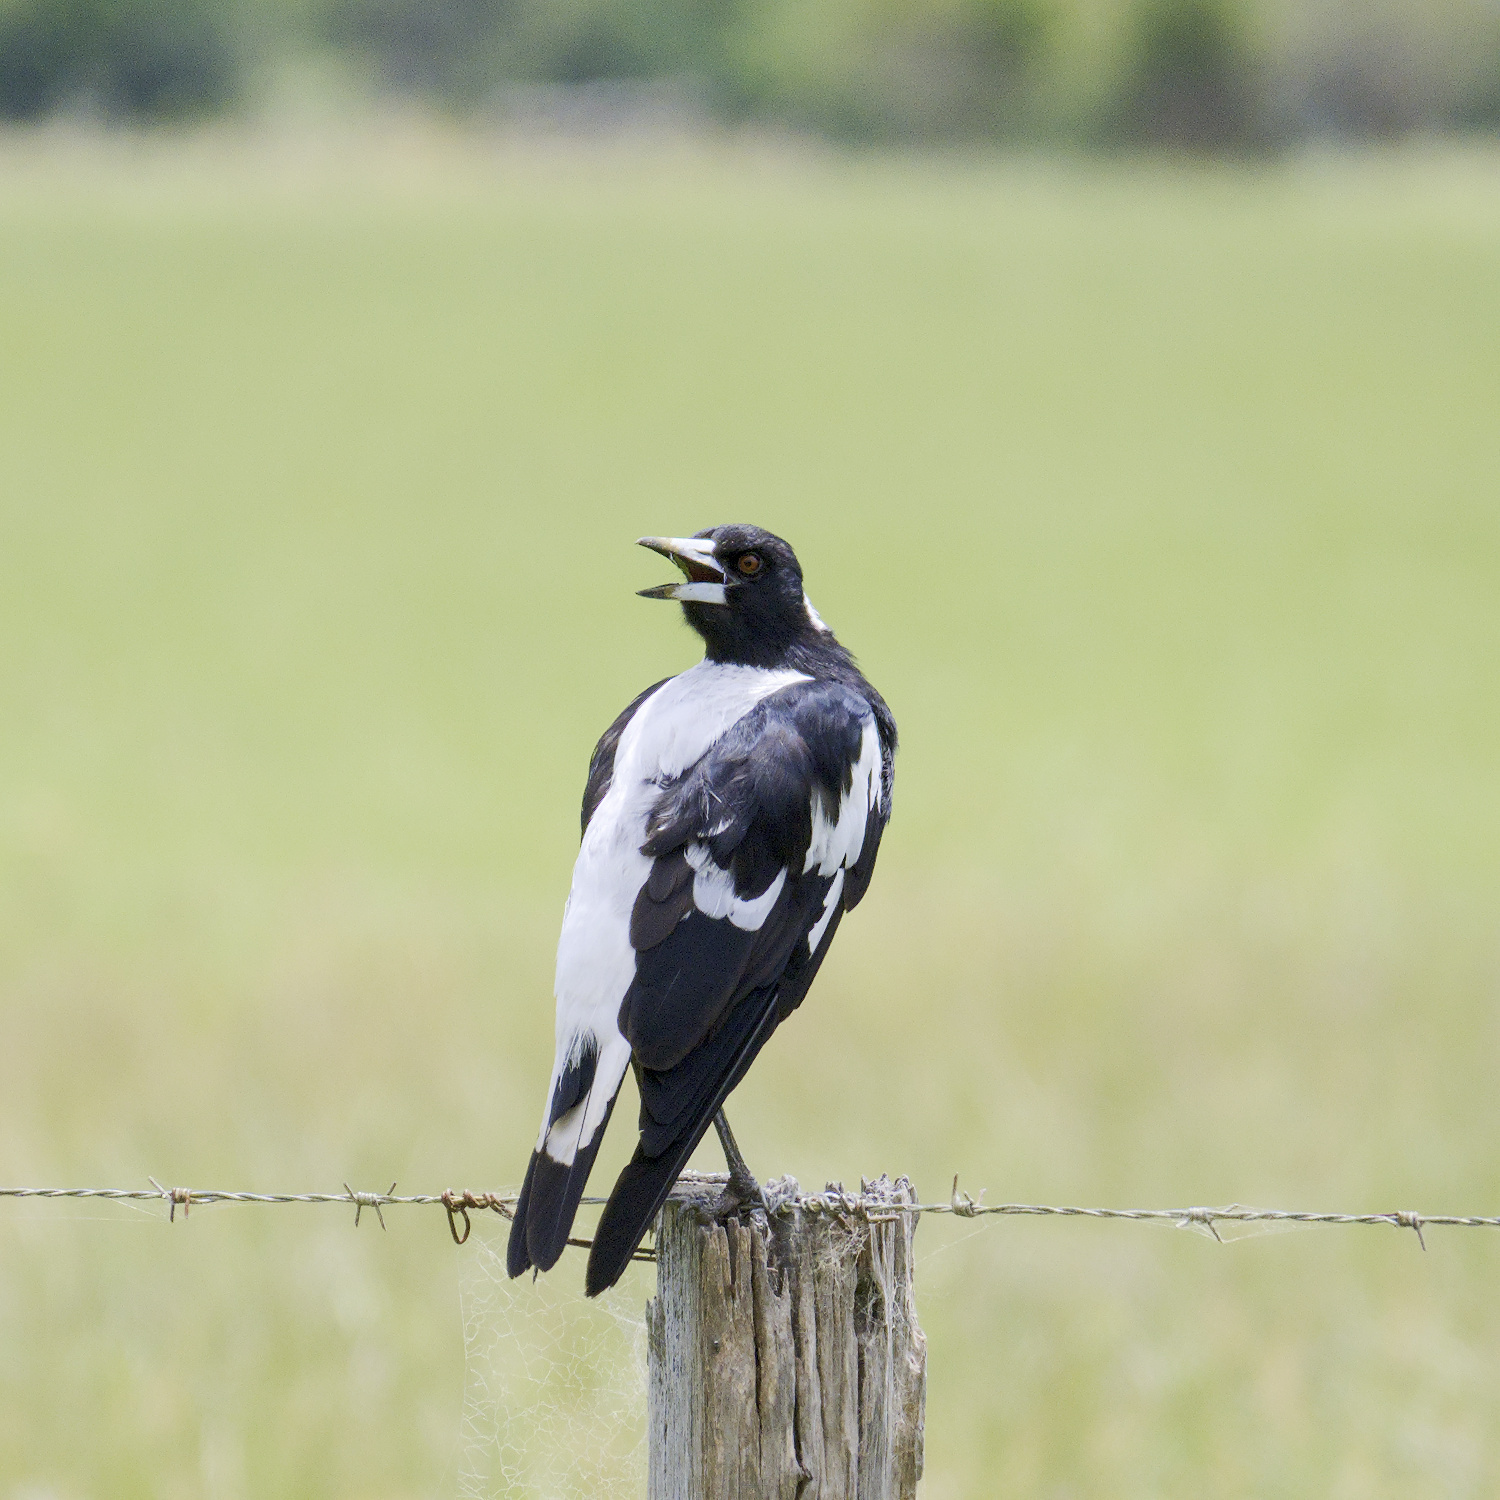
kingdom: Animalia
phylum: Chordata
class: Aves
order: Passeriformes
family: Cracticidae
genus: Gymnorhina
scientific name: Gymnorhina tibicen
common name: Australian magpie
